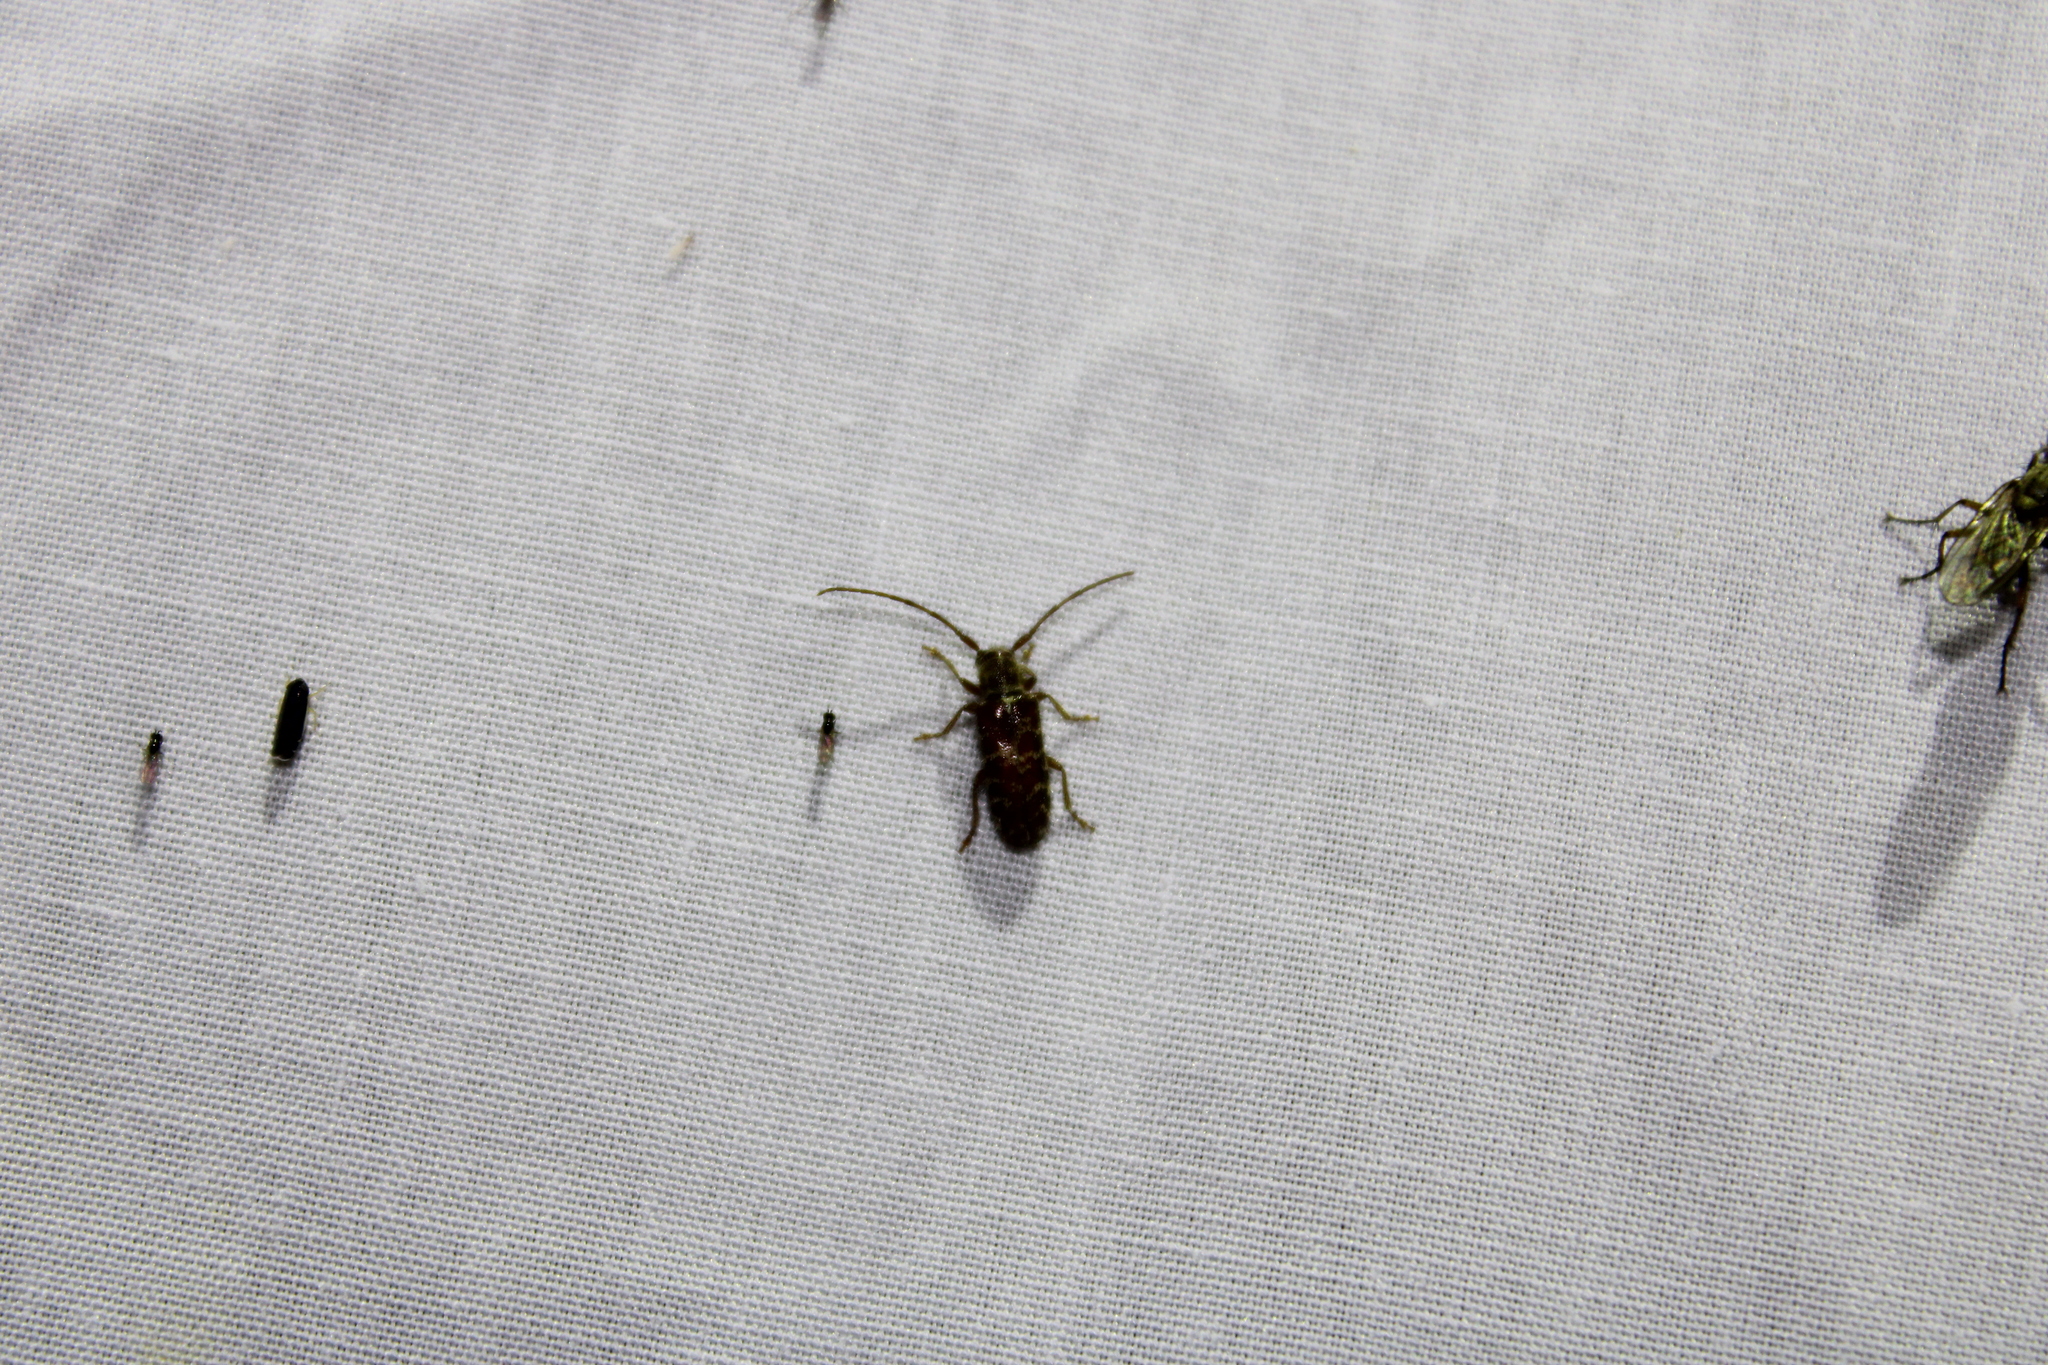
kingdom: Animalia
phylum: Arthropoda
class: Insecta
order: Coleoptera
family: Cerambycidae
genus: Eupogonius
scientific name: Eupogonius tomentosus
